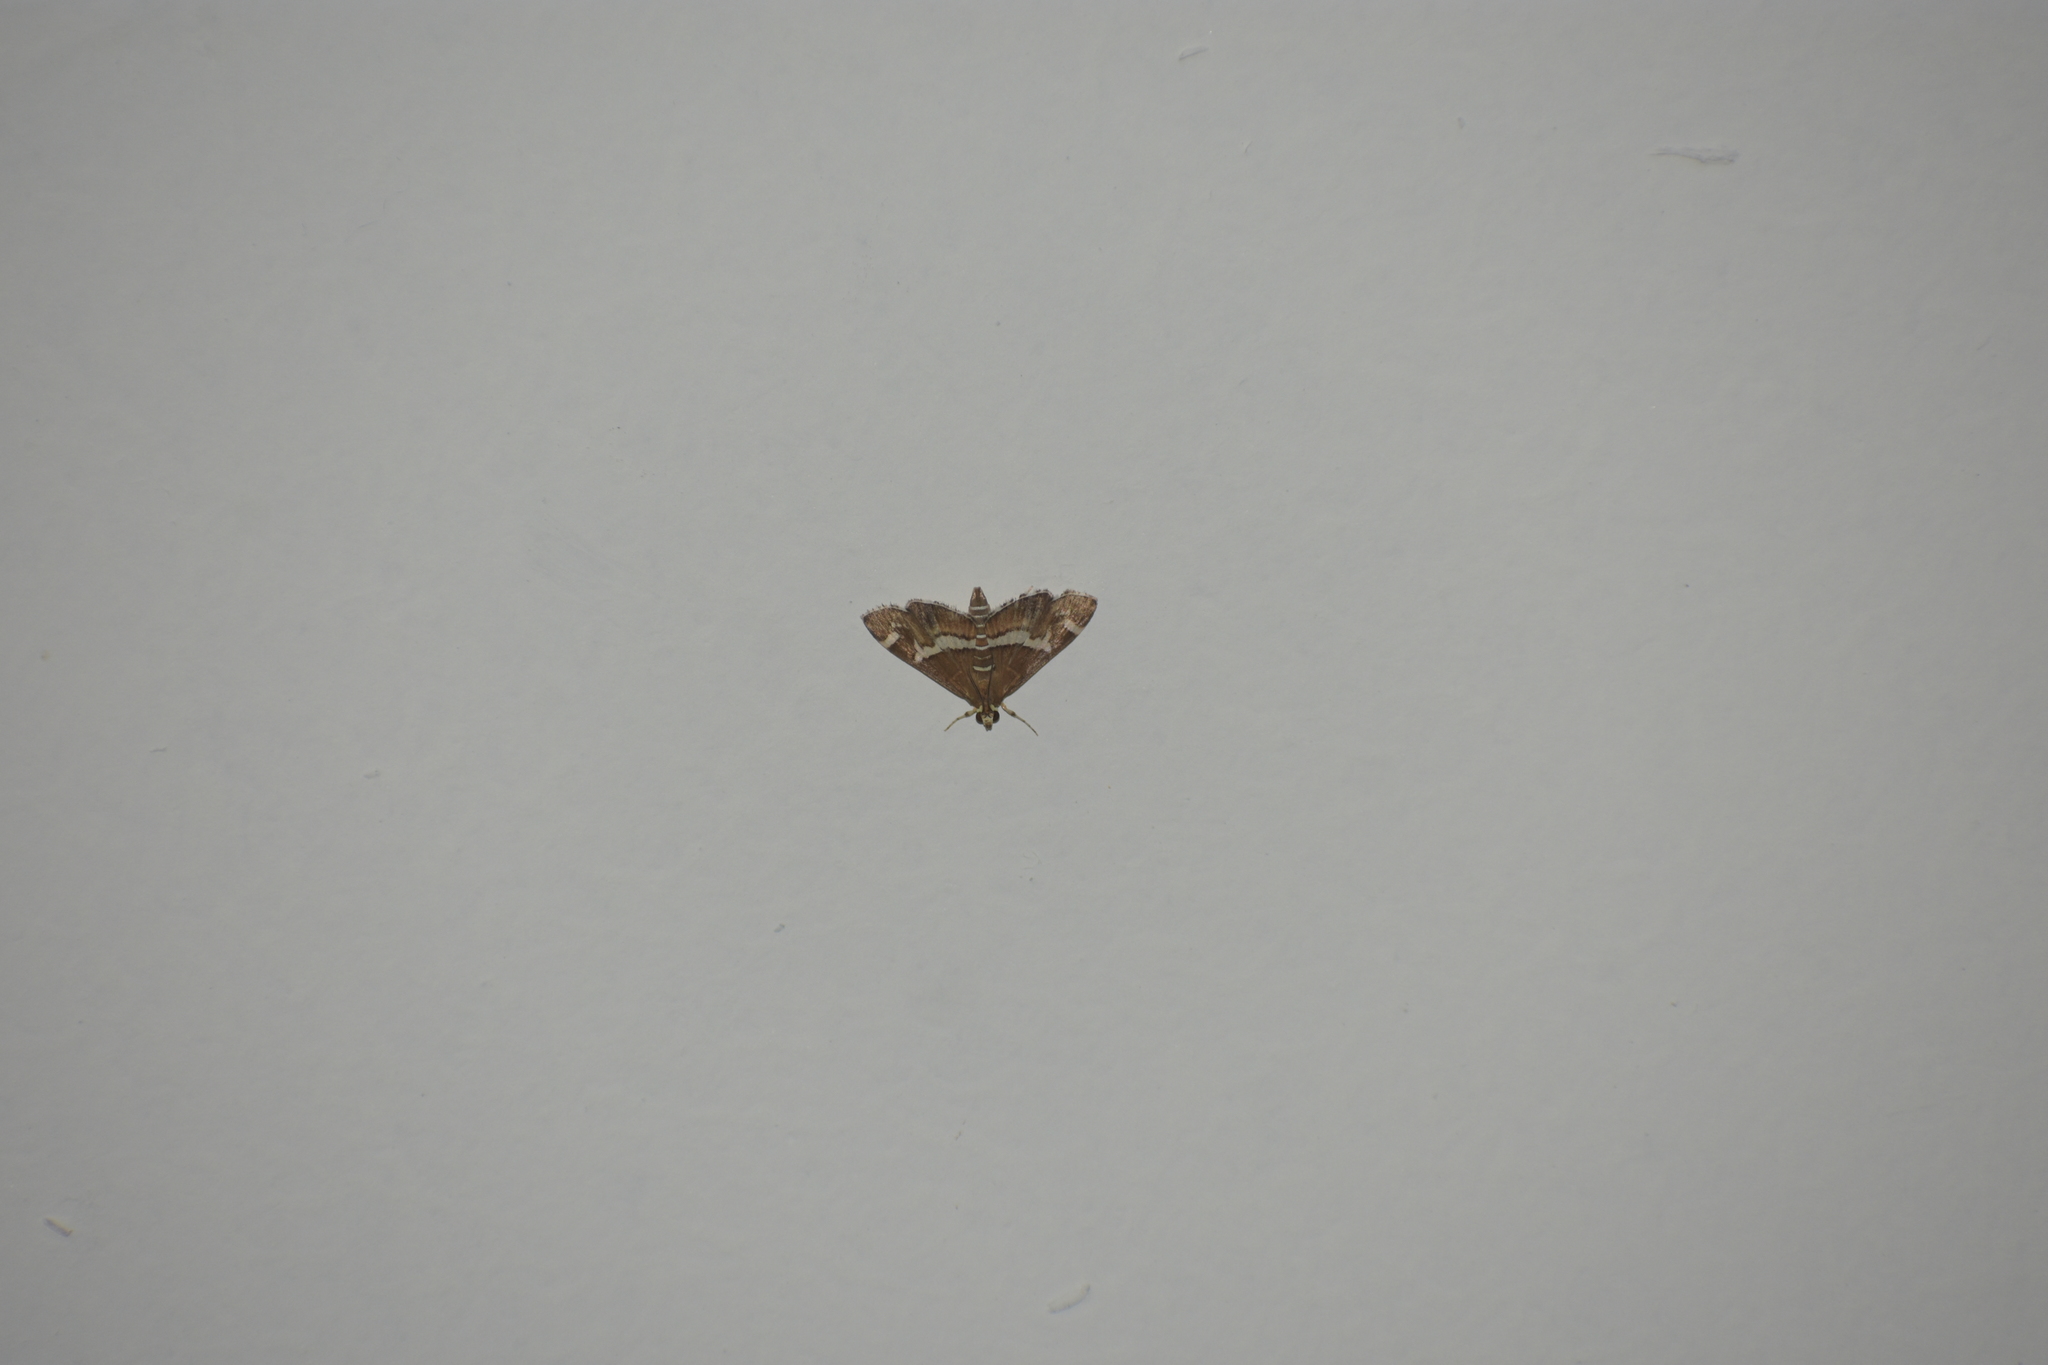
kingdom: Animalia
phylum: Arthropoda
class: Insecta
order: Lepidoptera
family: Crambidae
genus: Spoladea
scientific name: Spoladea recurvalis
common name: Beet webworm moth
